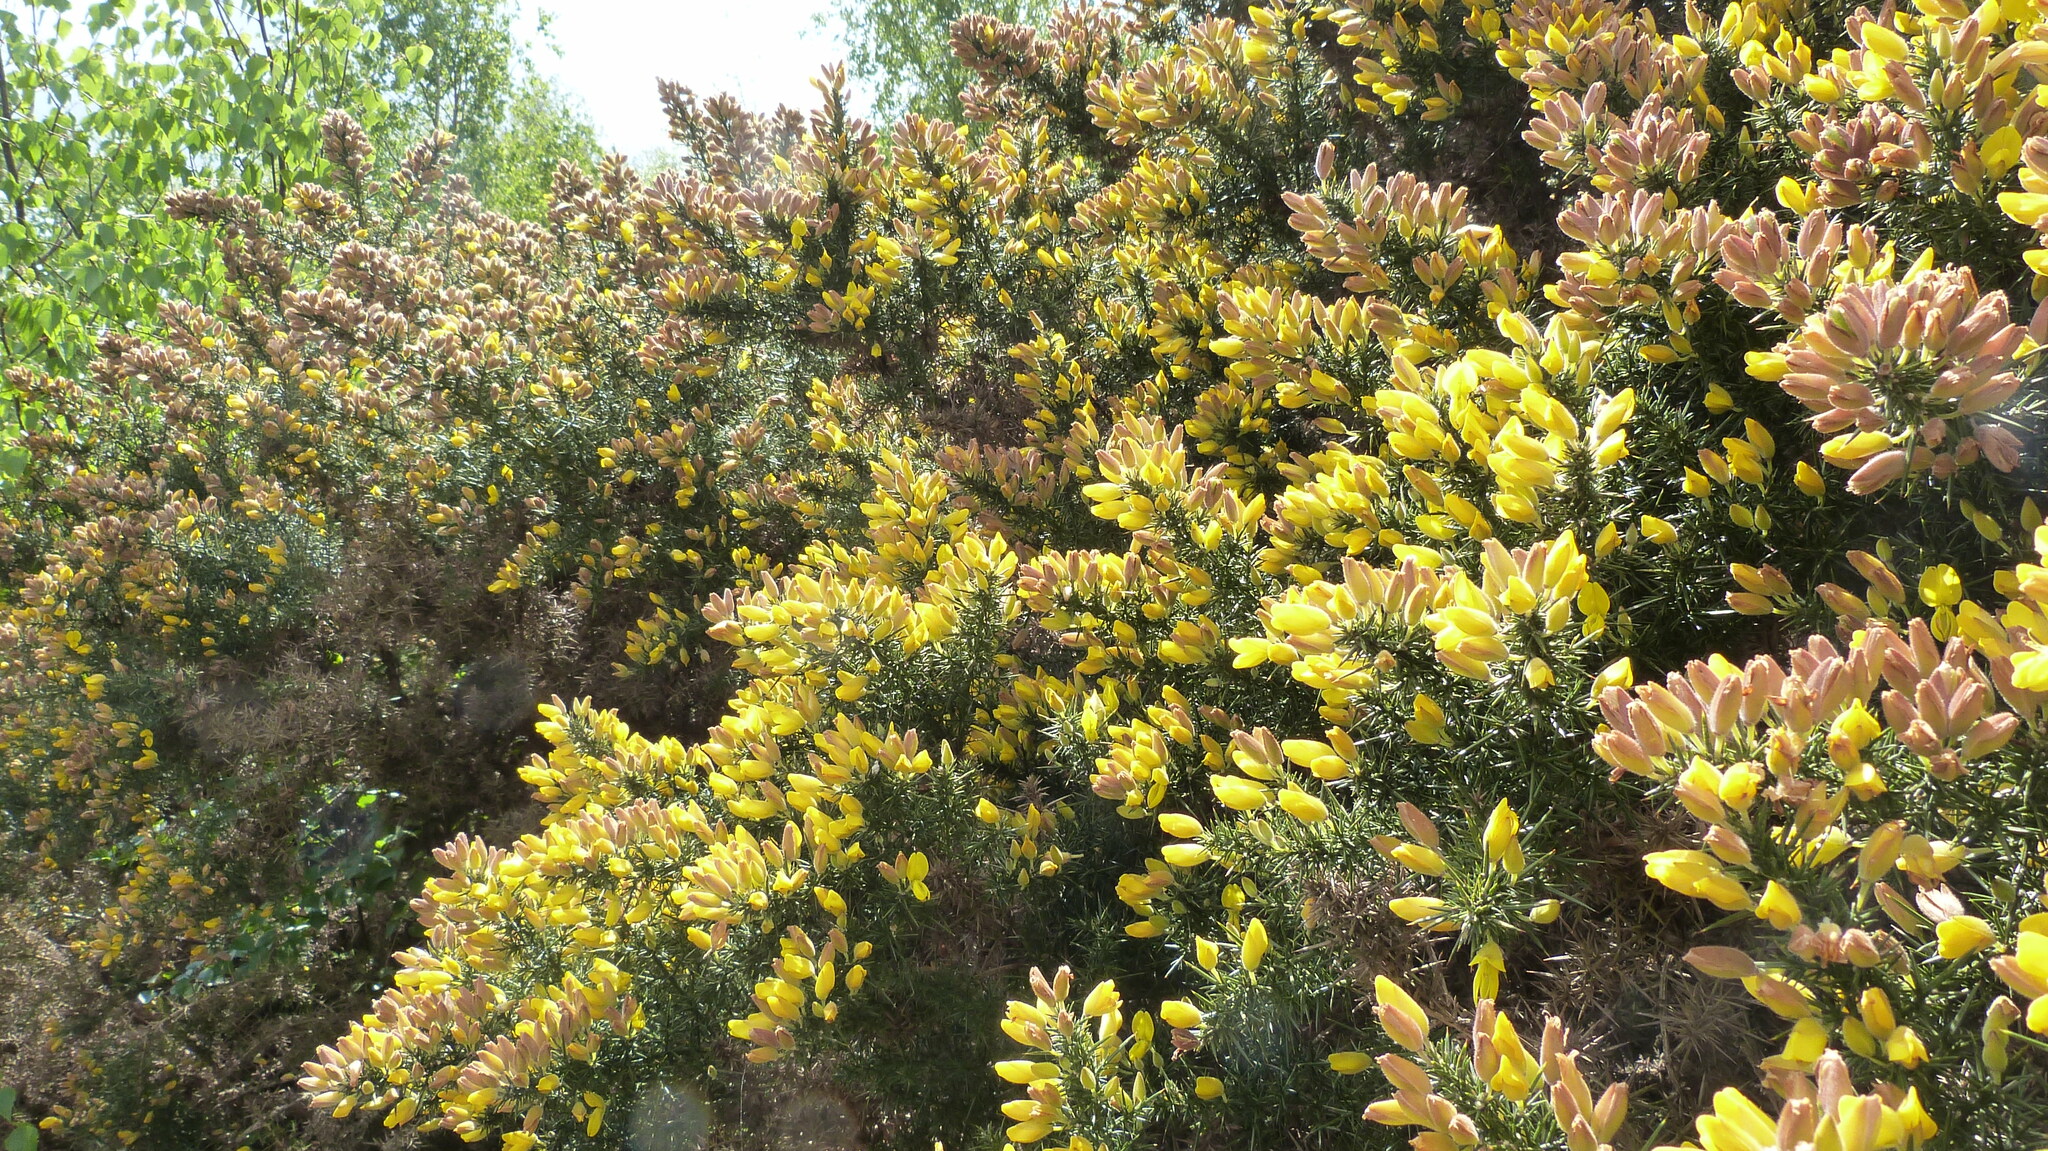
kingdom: Plantae
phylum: Tracheophyta
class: Magnoliopsida
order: Fabales
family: Fabaceae
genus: Ulex
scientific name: Ulex europaeus
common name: Common gorse
